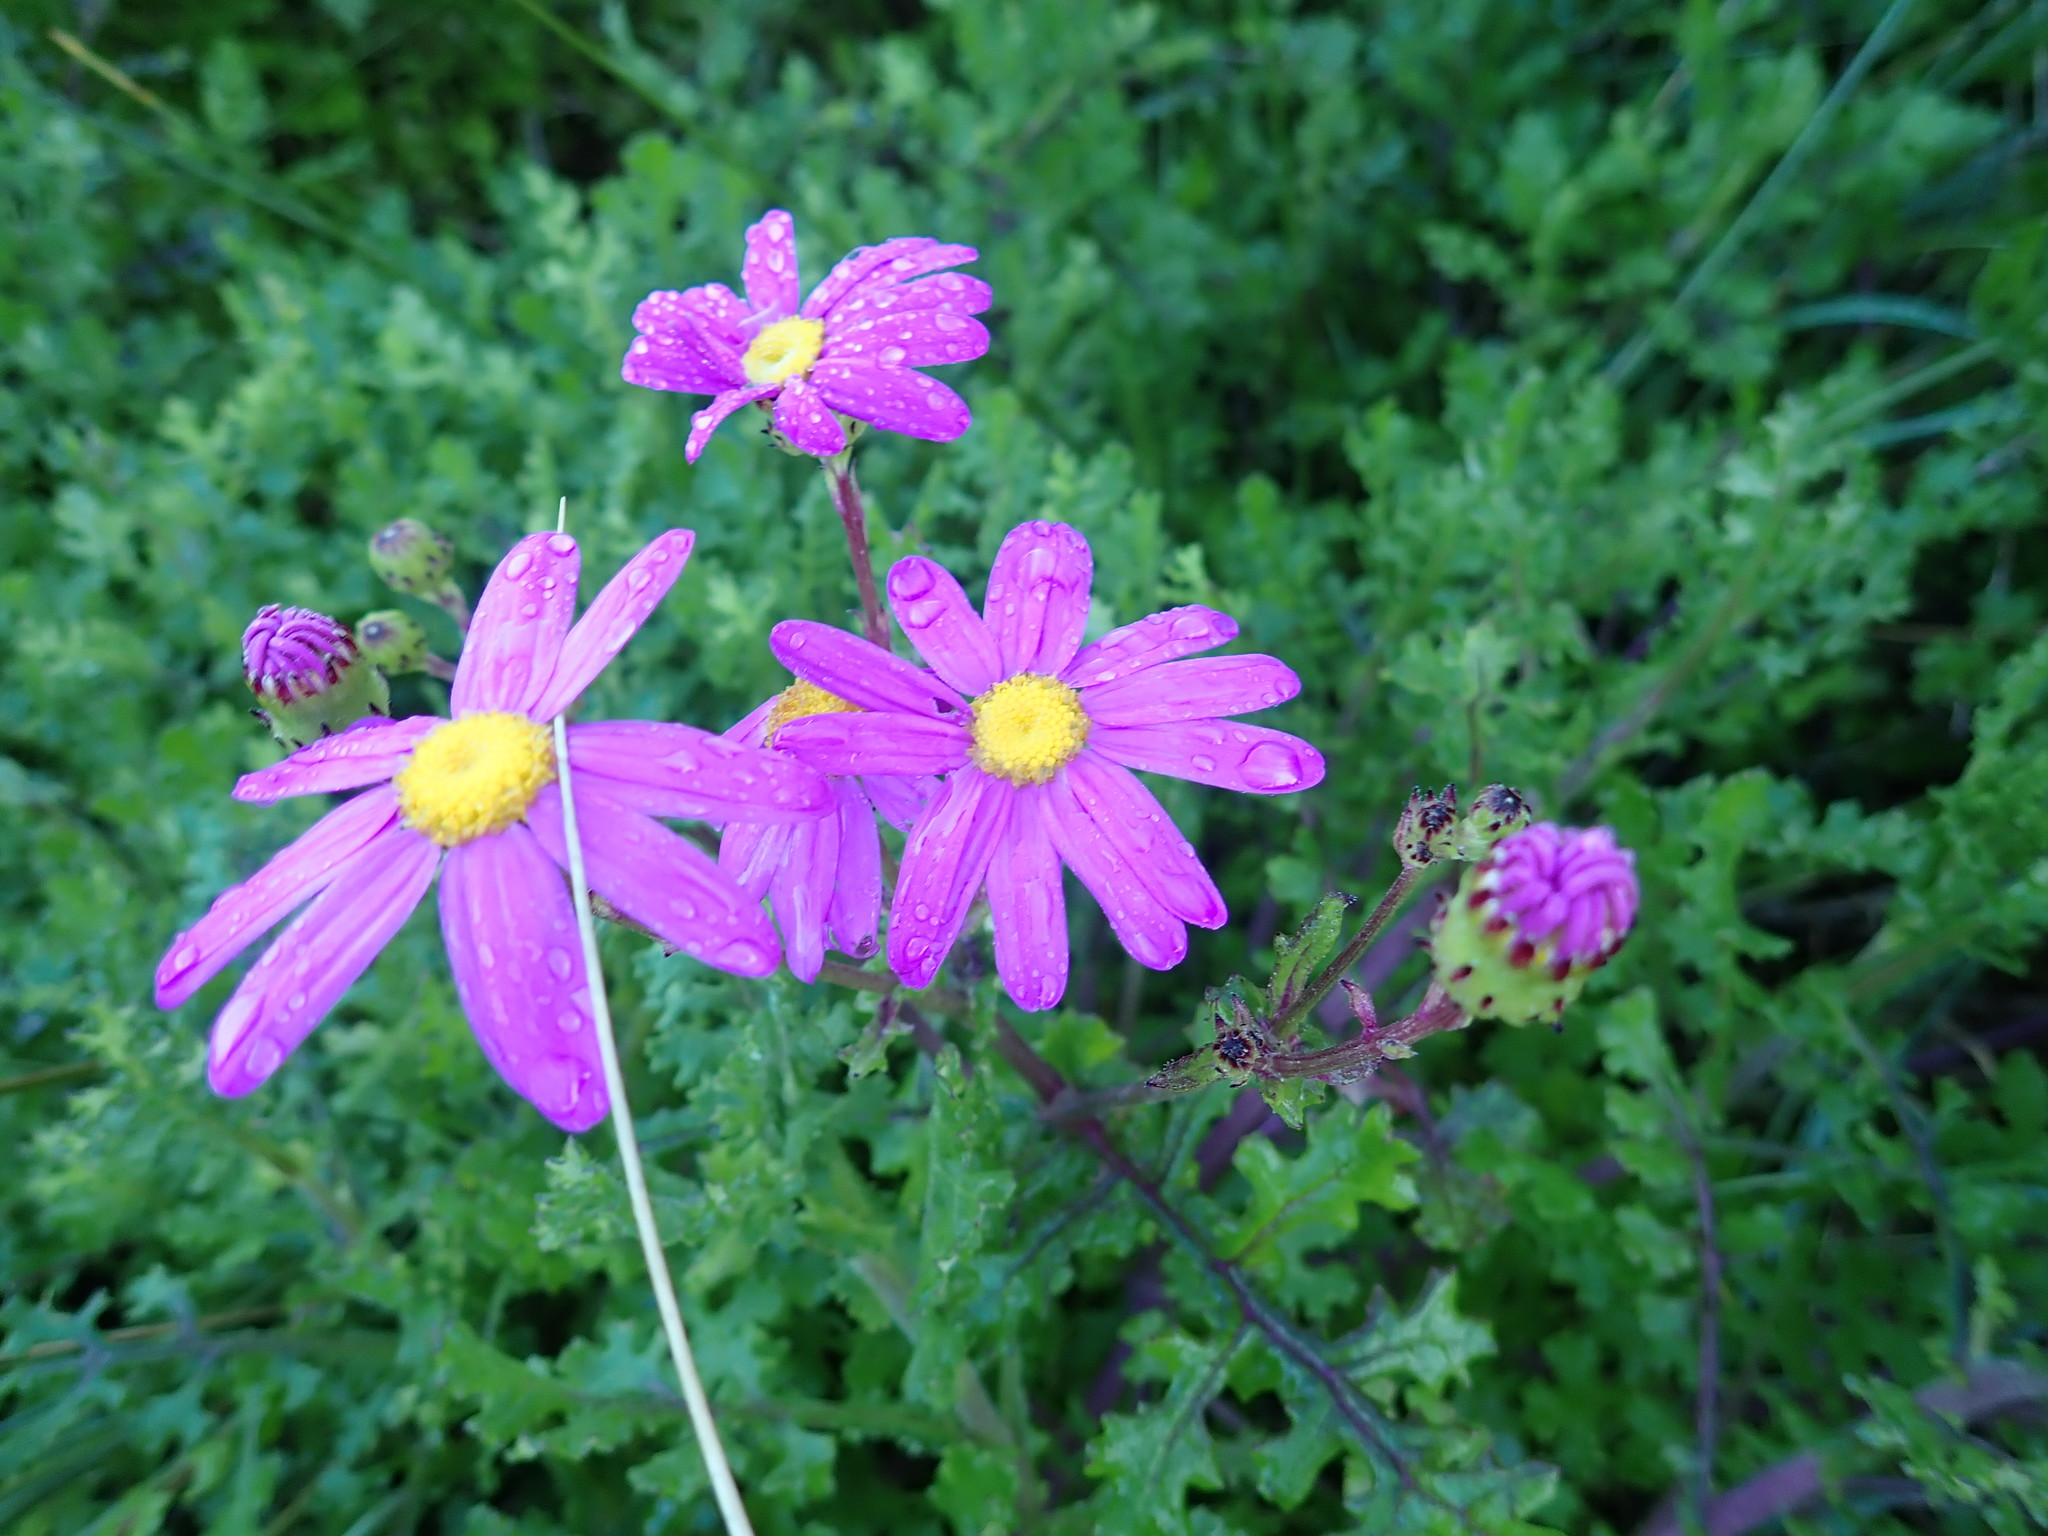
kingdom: Plantae
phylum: Tracheophyta
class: Magnoliopsida
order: Asterales
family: Asteraceae
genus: Senecio
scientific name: Senecio elegans
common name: Purple groundsel
